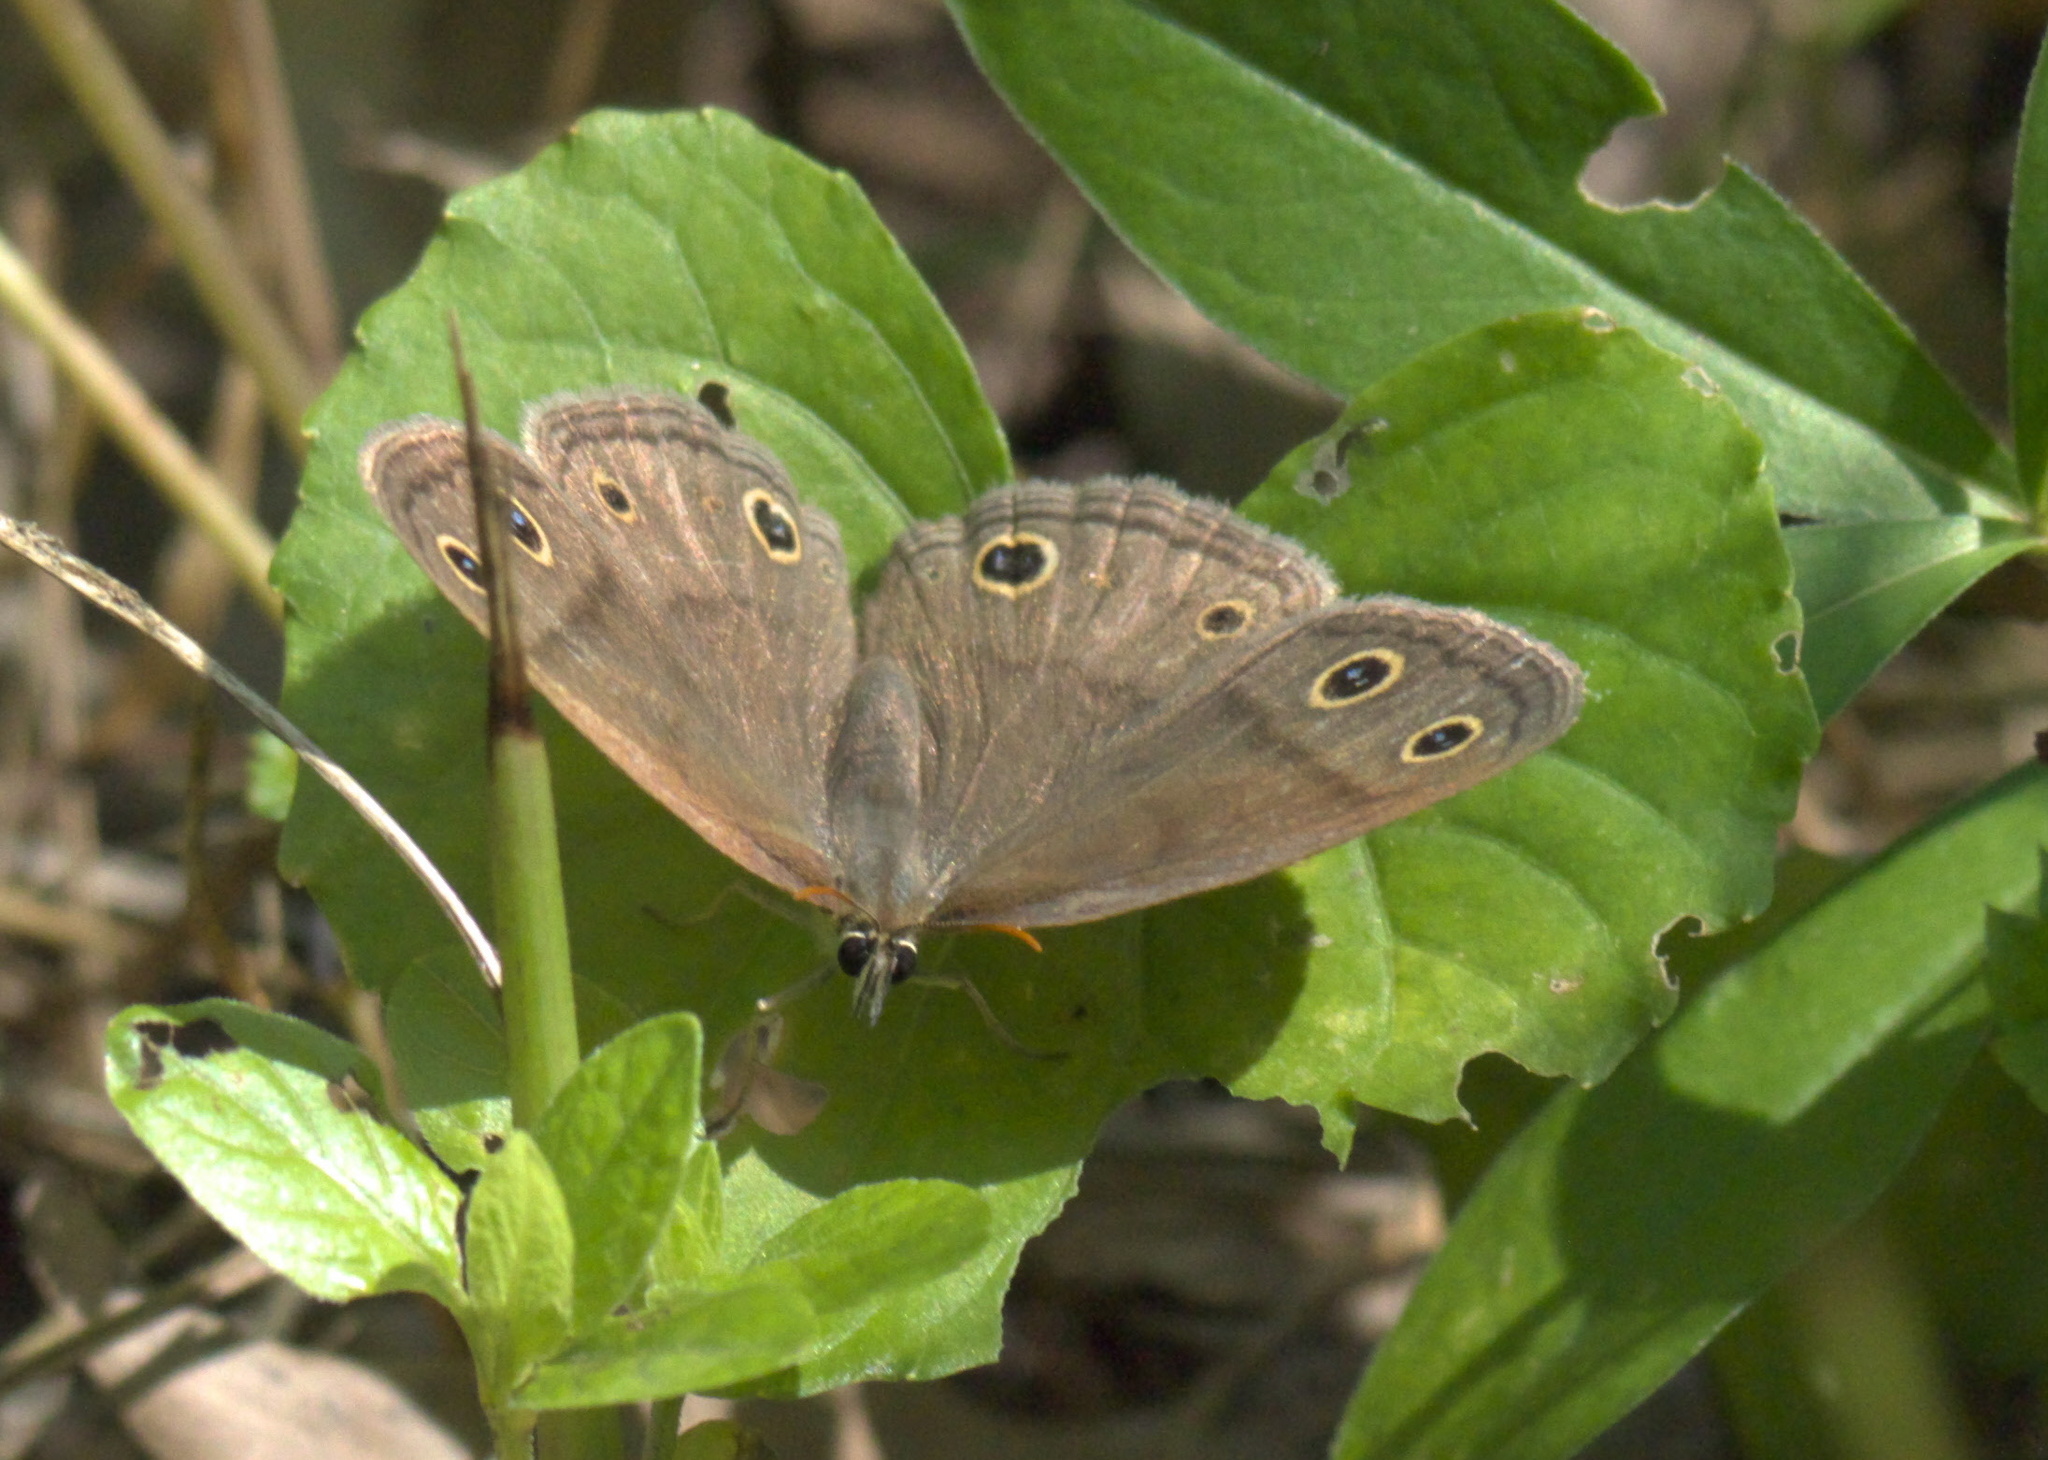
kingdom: Animalia
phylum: Arthropoda
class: Insecta
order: Lepidoptera
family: Nymphalidae
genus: Euptychia
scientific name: Euptychia cymela
